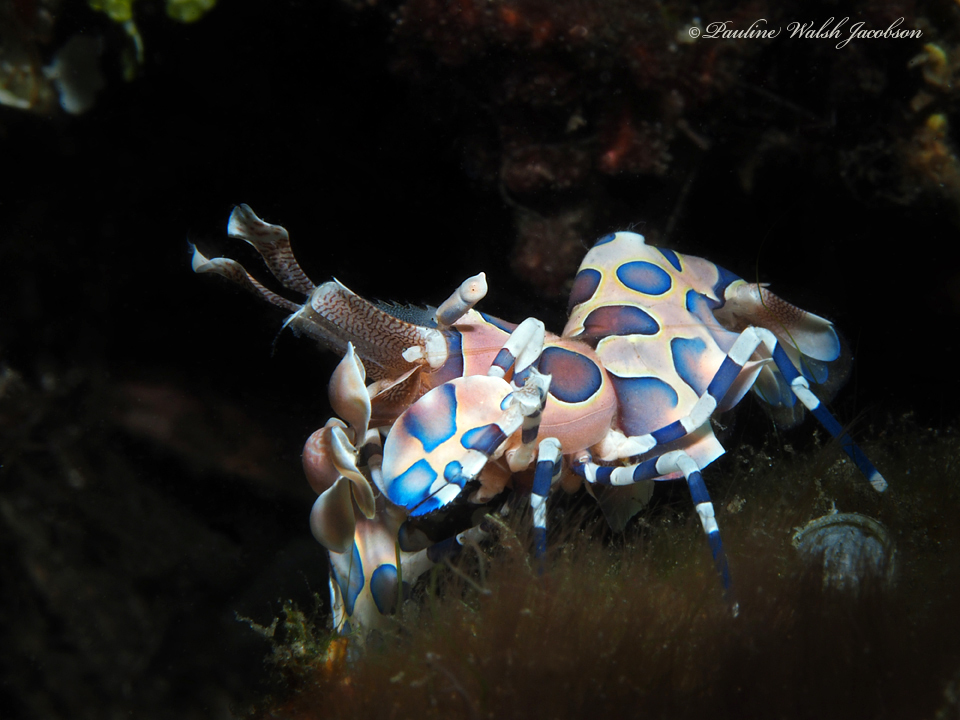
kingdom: Animalia
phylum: Arthropoda
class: Malacostraca
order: Decapoda
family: Palaemonidae
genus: Hymenocera
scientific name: Hymenocera picta
